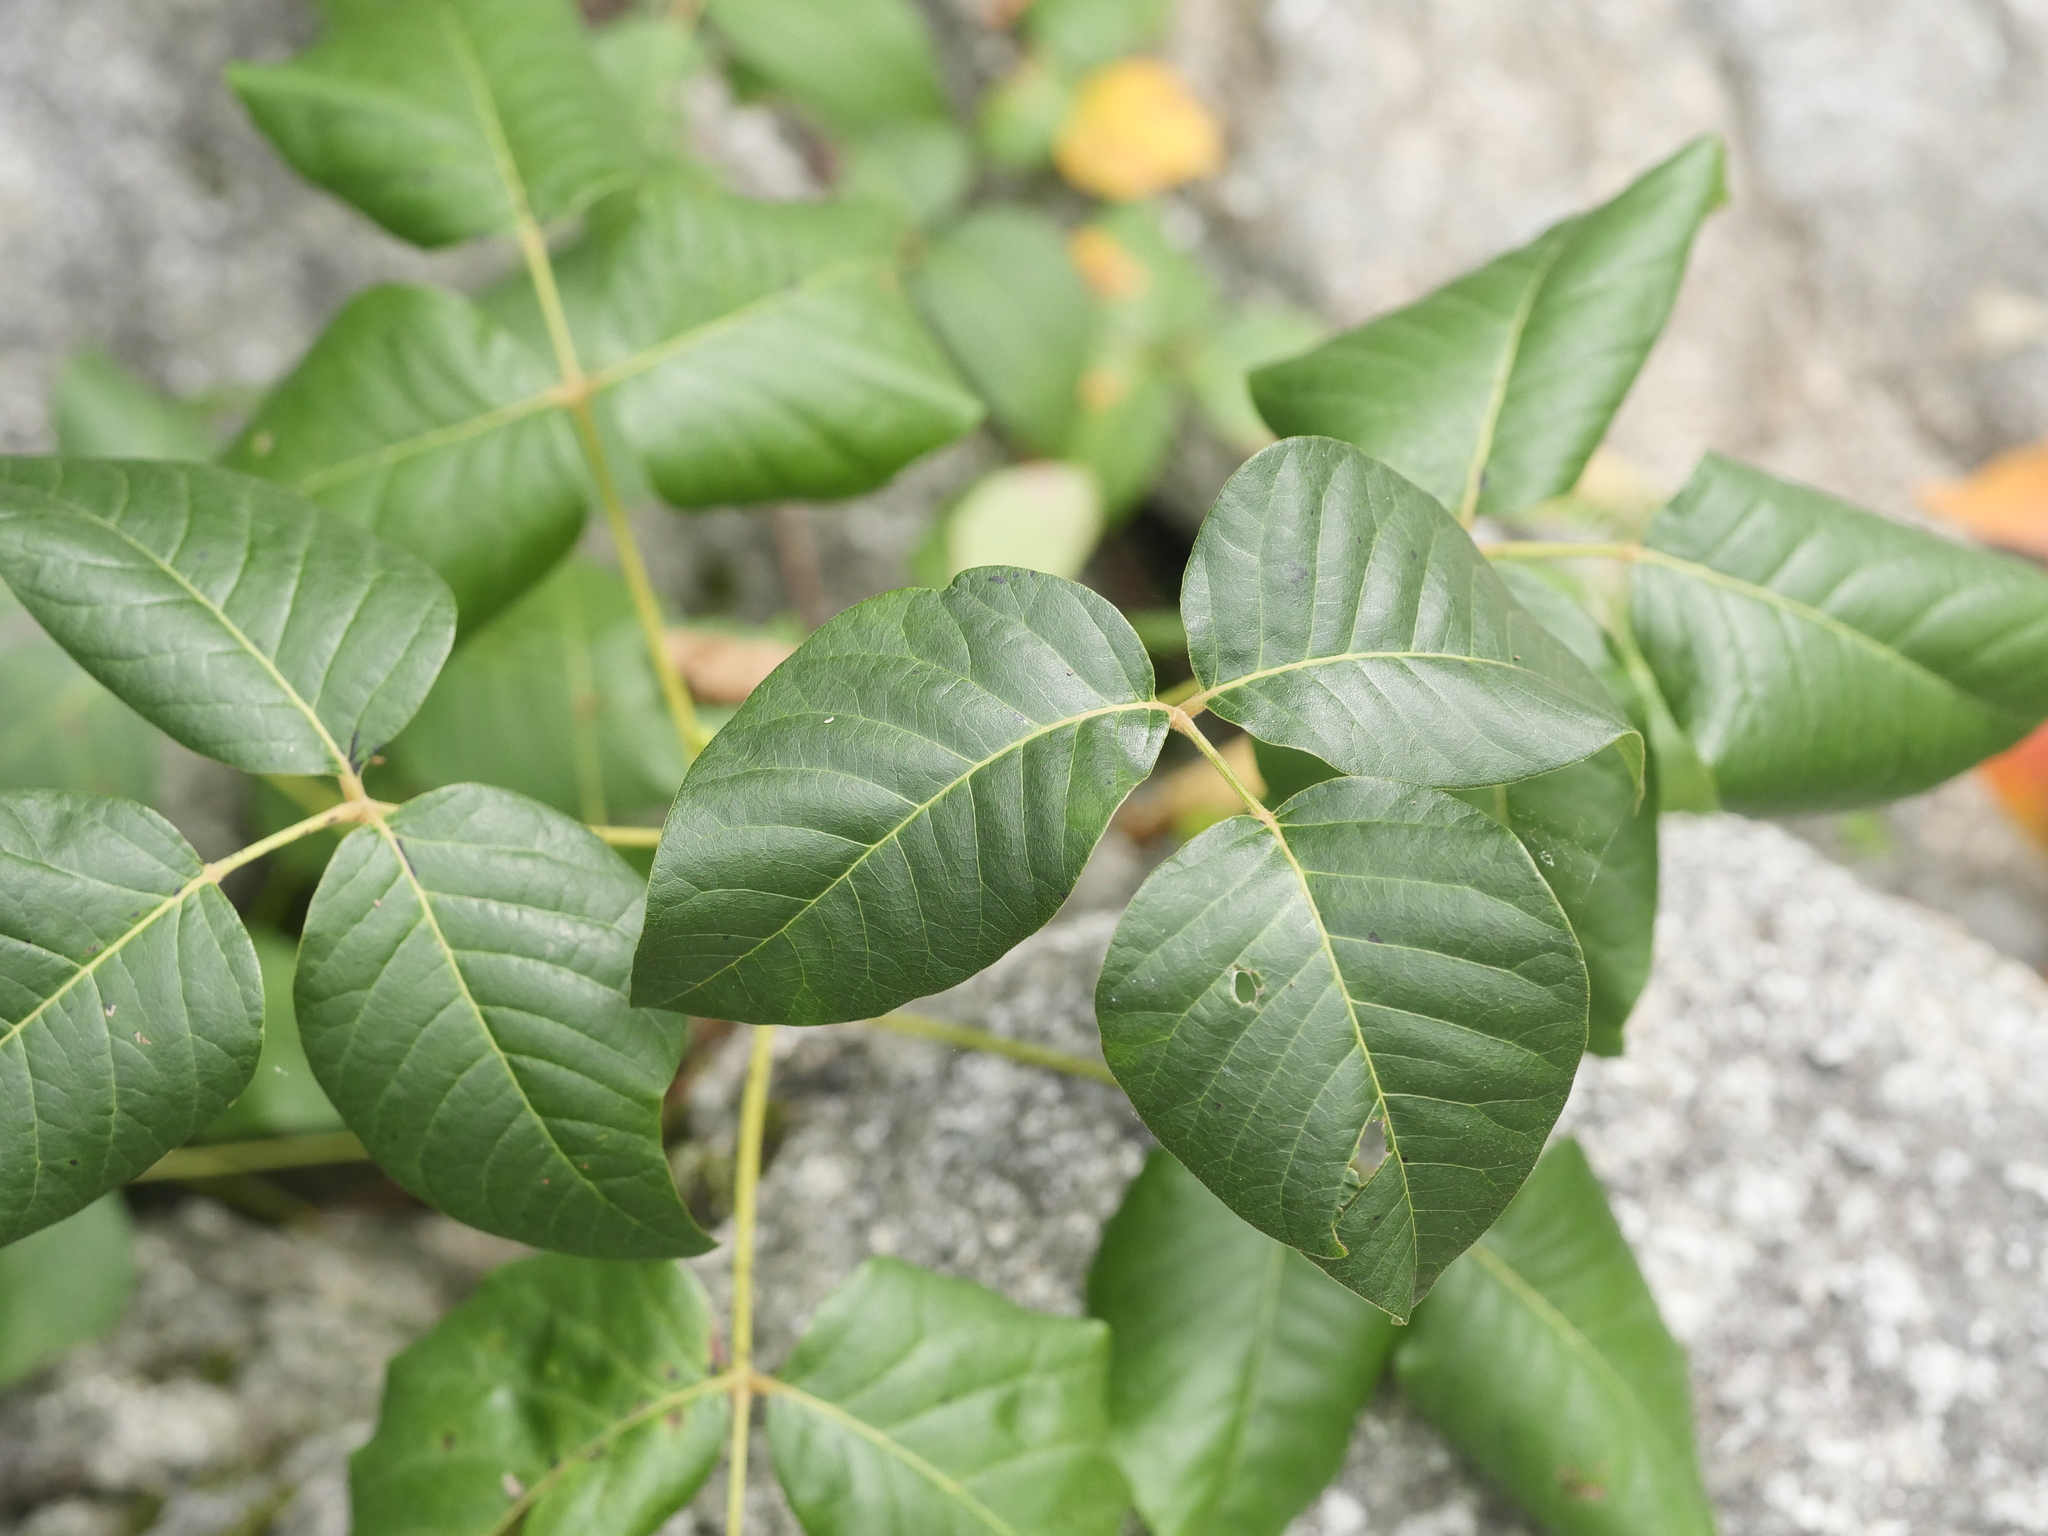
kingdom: Plantae
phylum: Tracheophyta
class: Magnoliopsida
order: Sapindales
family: Anacardiaceae
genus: Toxicodendron
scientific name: Toxicodendron radicans
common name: Poison ivy
